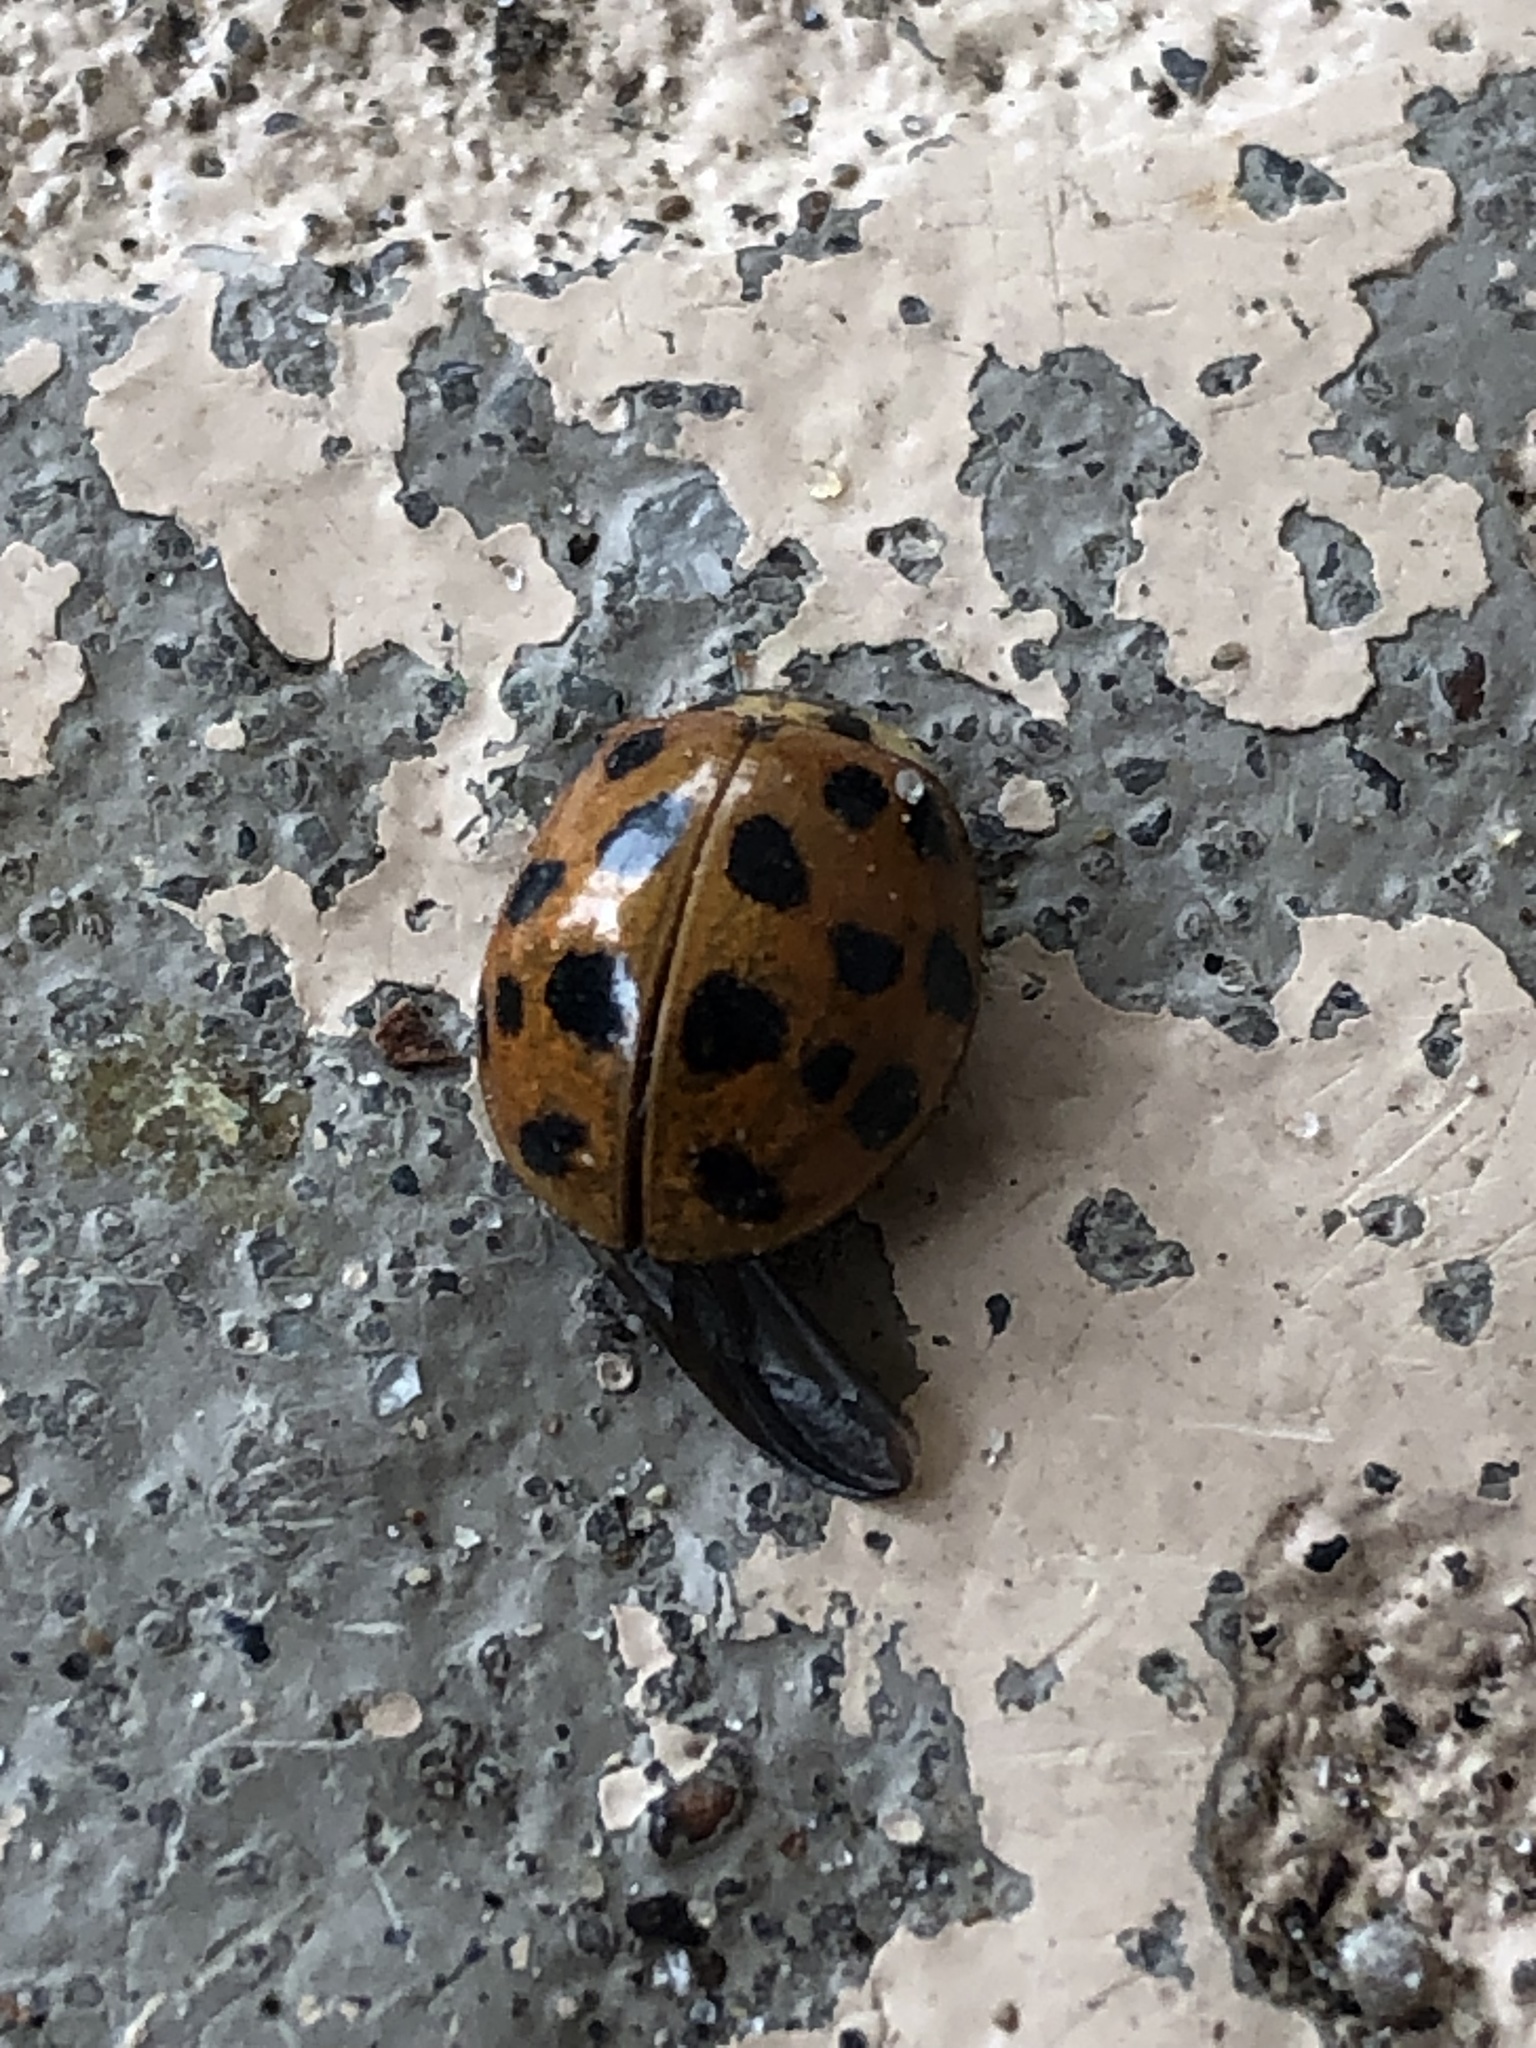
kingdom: Animalia
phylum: Arthropoda
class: Insecta
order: Coleoptera
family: Coccinellidae
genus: Harmonia
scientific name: Harmonia axyridis
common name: Harlequin ladybird
